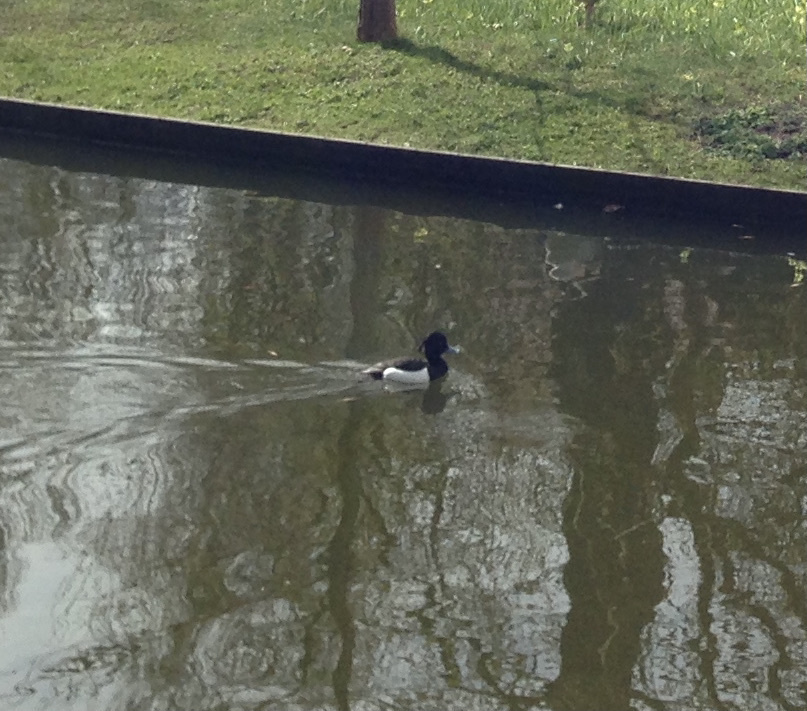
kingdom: Animalia
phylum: Chordata
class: Aves
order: Anseriformes
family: Anatidae
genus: Aythya
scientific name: Aythya fuligula
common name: Tufted duck
